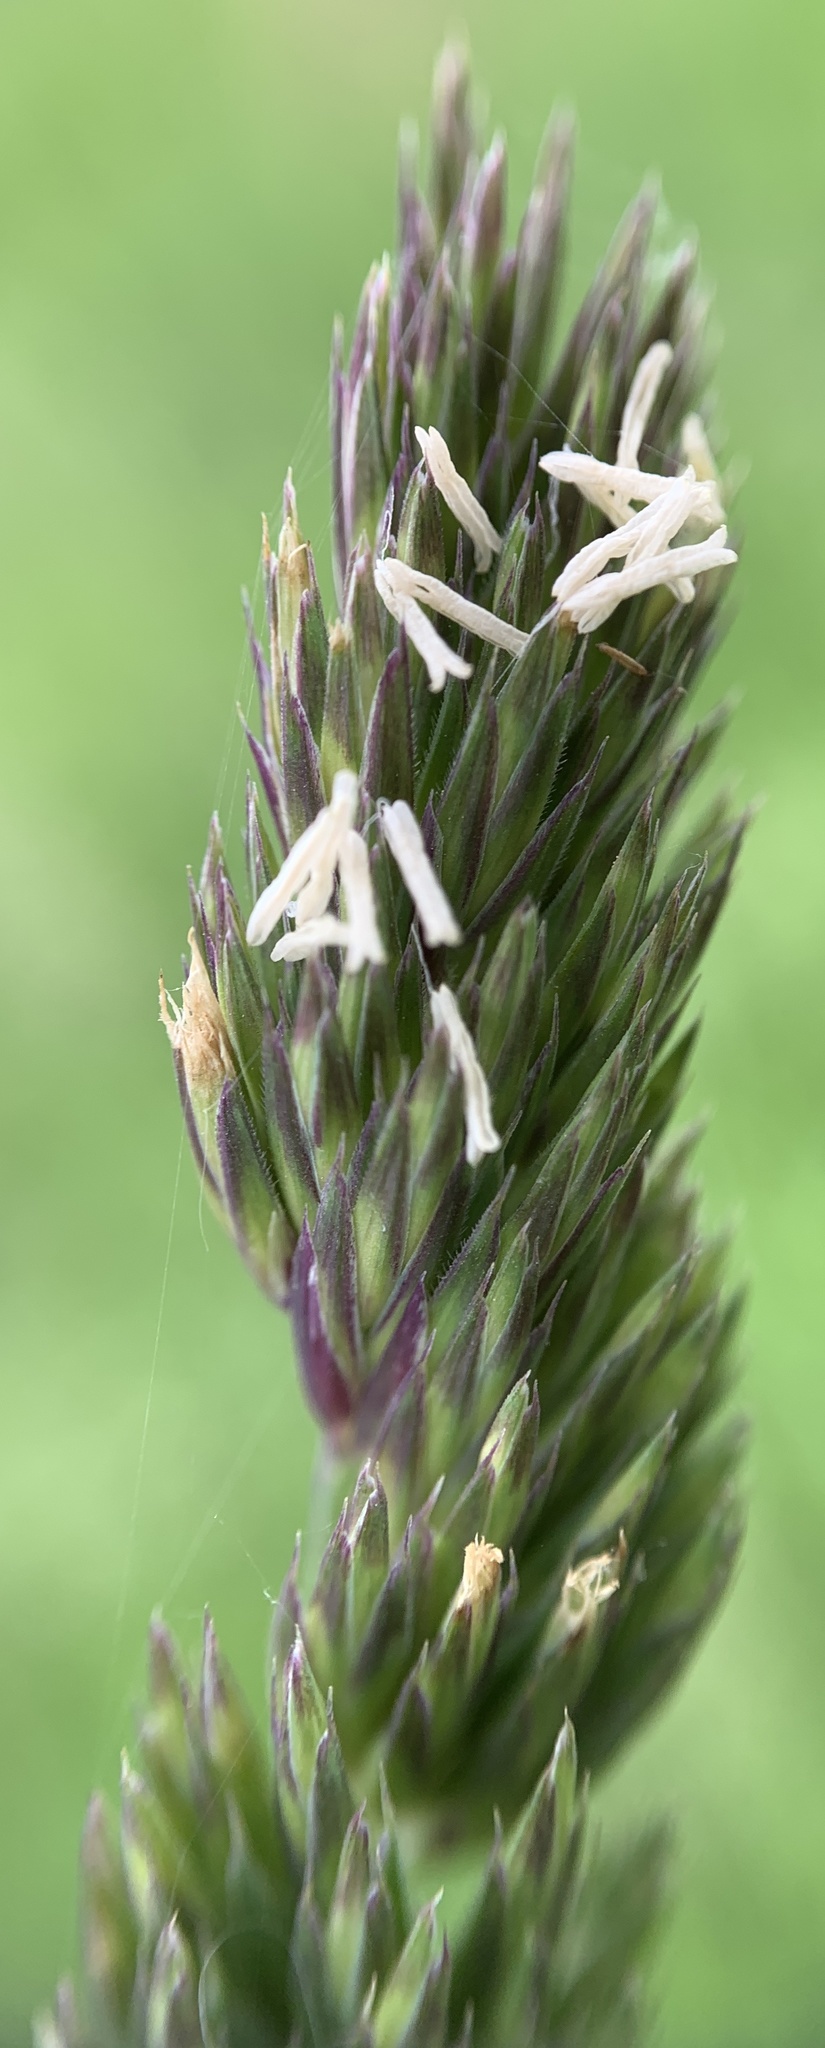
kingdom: Plantae
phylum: Tracheophyta
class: Liliopsida
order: Poales
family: Poaceae
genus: Dactylis
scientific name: Dactylis glomerata
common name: Orchardgrass
